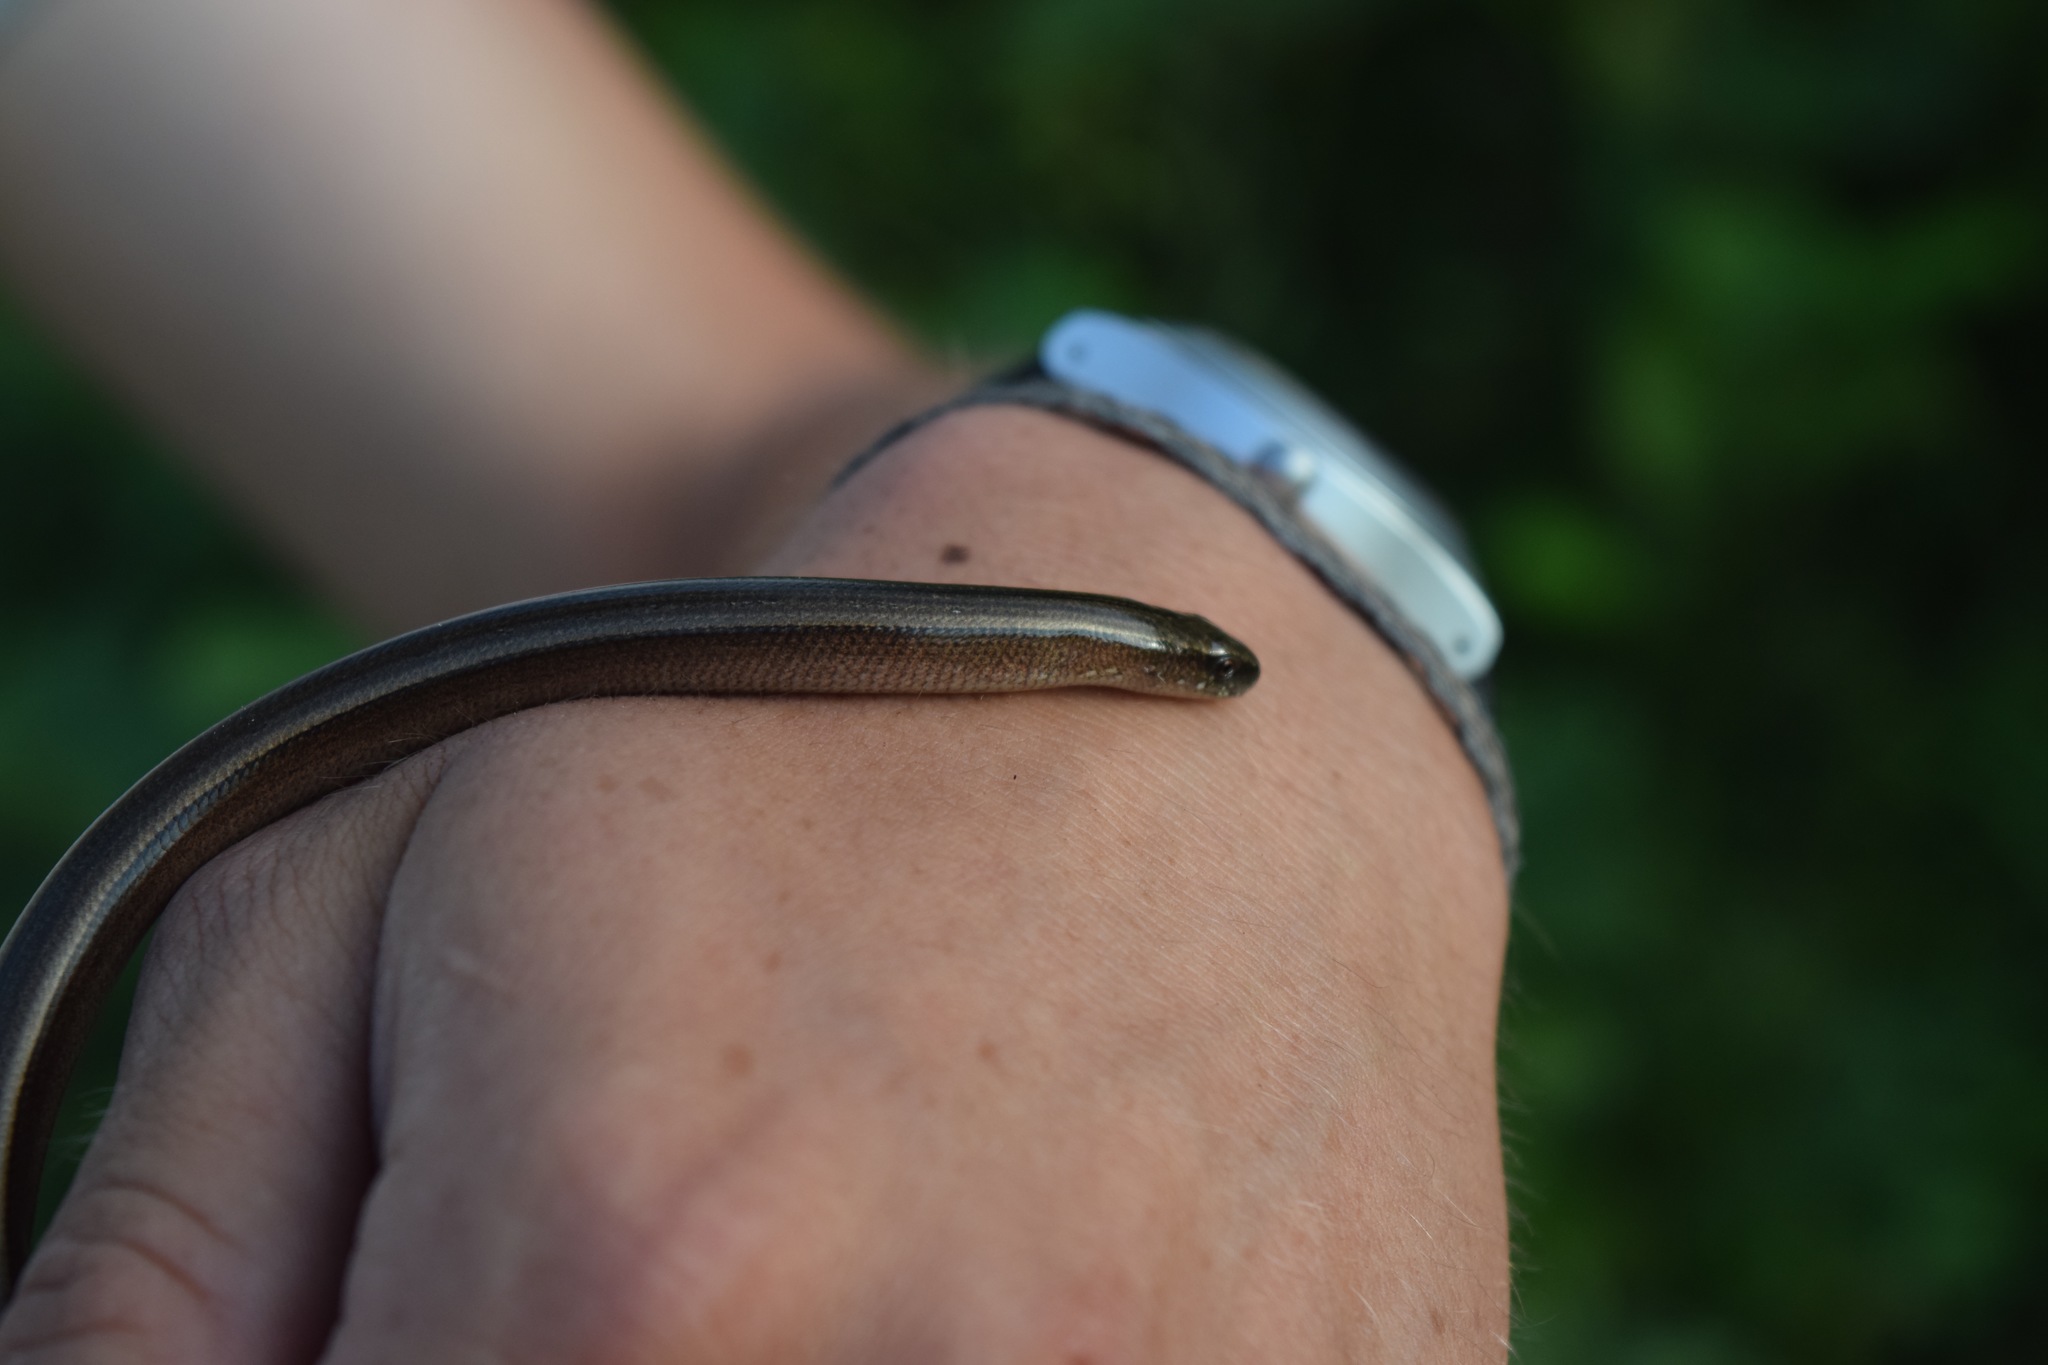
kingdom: Animalia
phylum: Chordata
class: Squamata
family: Anguidae
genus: Anguis
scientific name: Anguis colchica
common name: Slow worm
